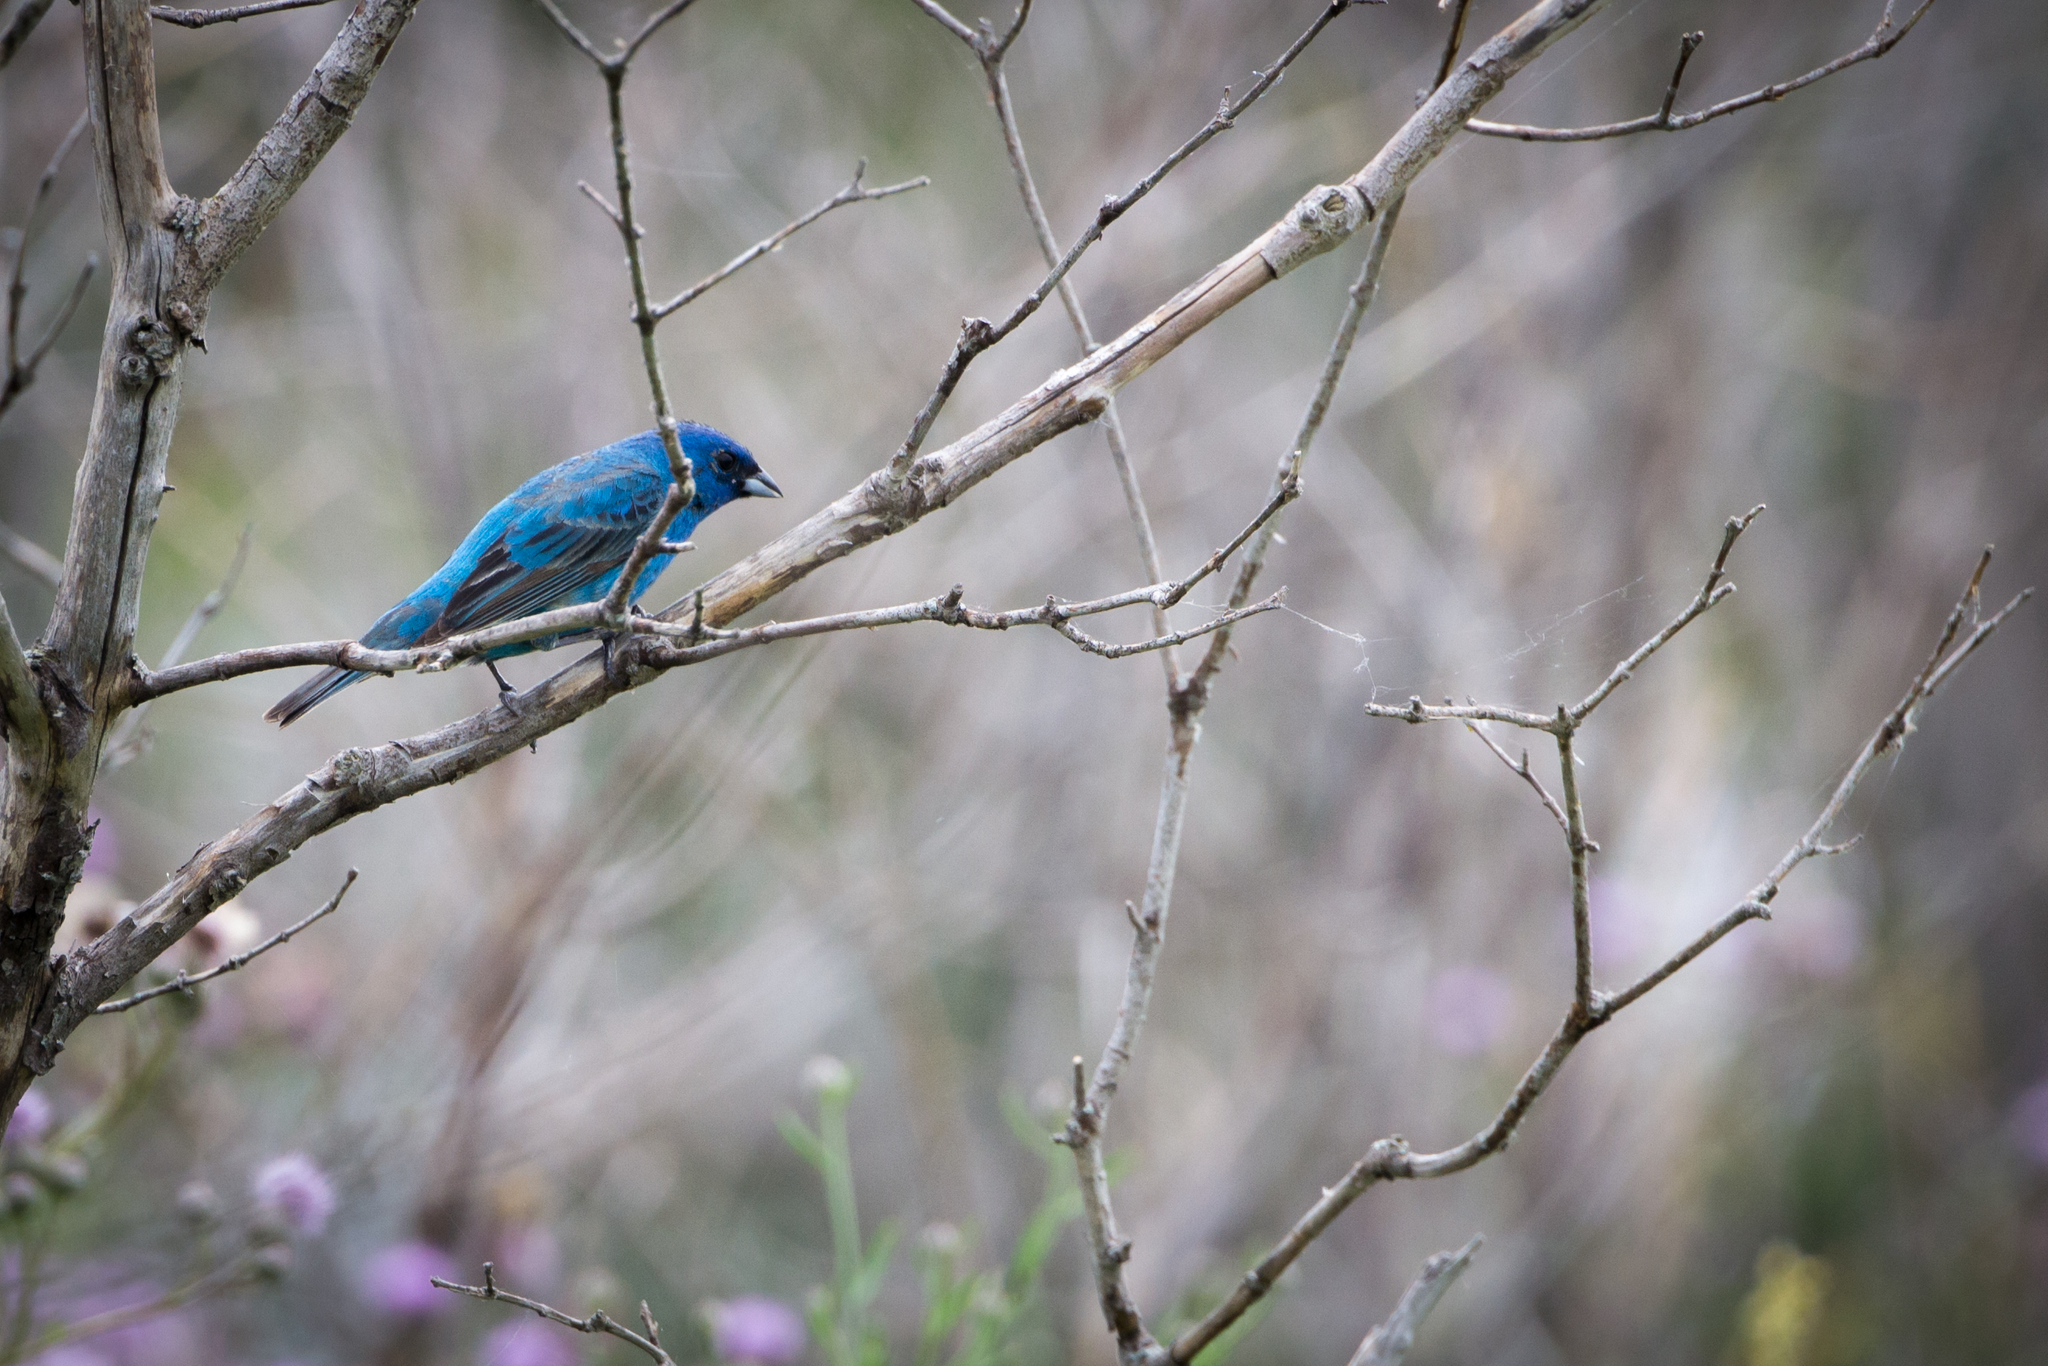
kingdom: Animalia
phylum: Chordata
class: Aves
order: Passeriformes
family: Cardinalidae
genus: Passerina
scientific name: Passerina cyanea
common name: Indigo bunting
